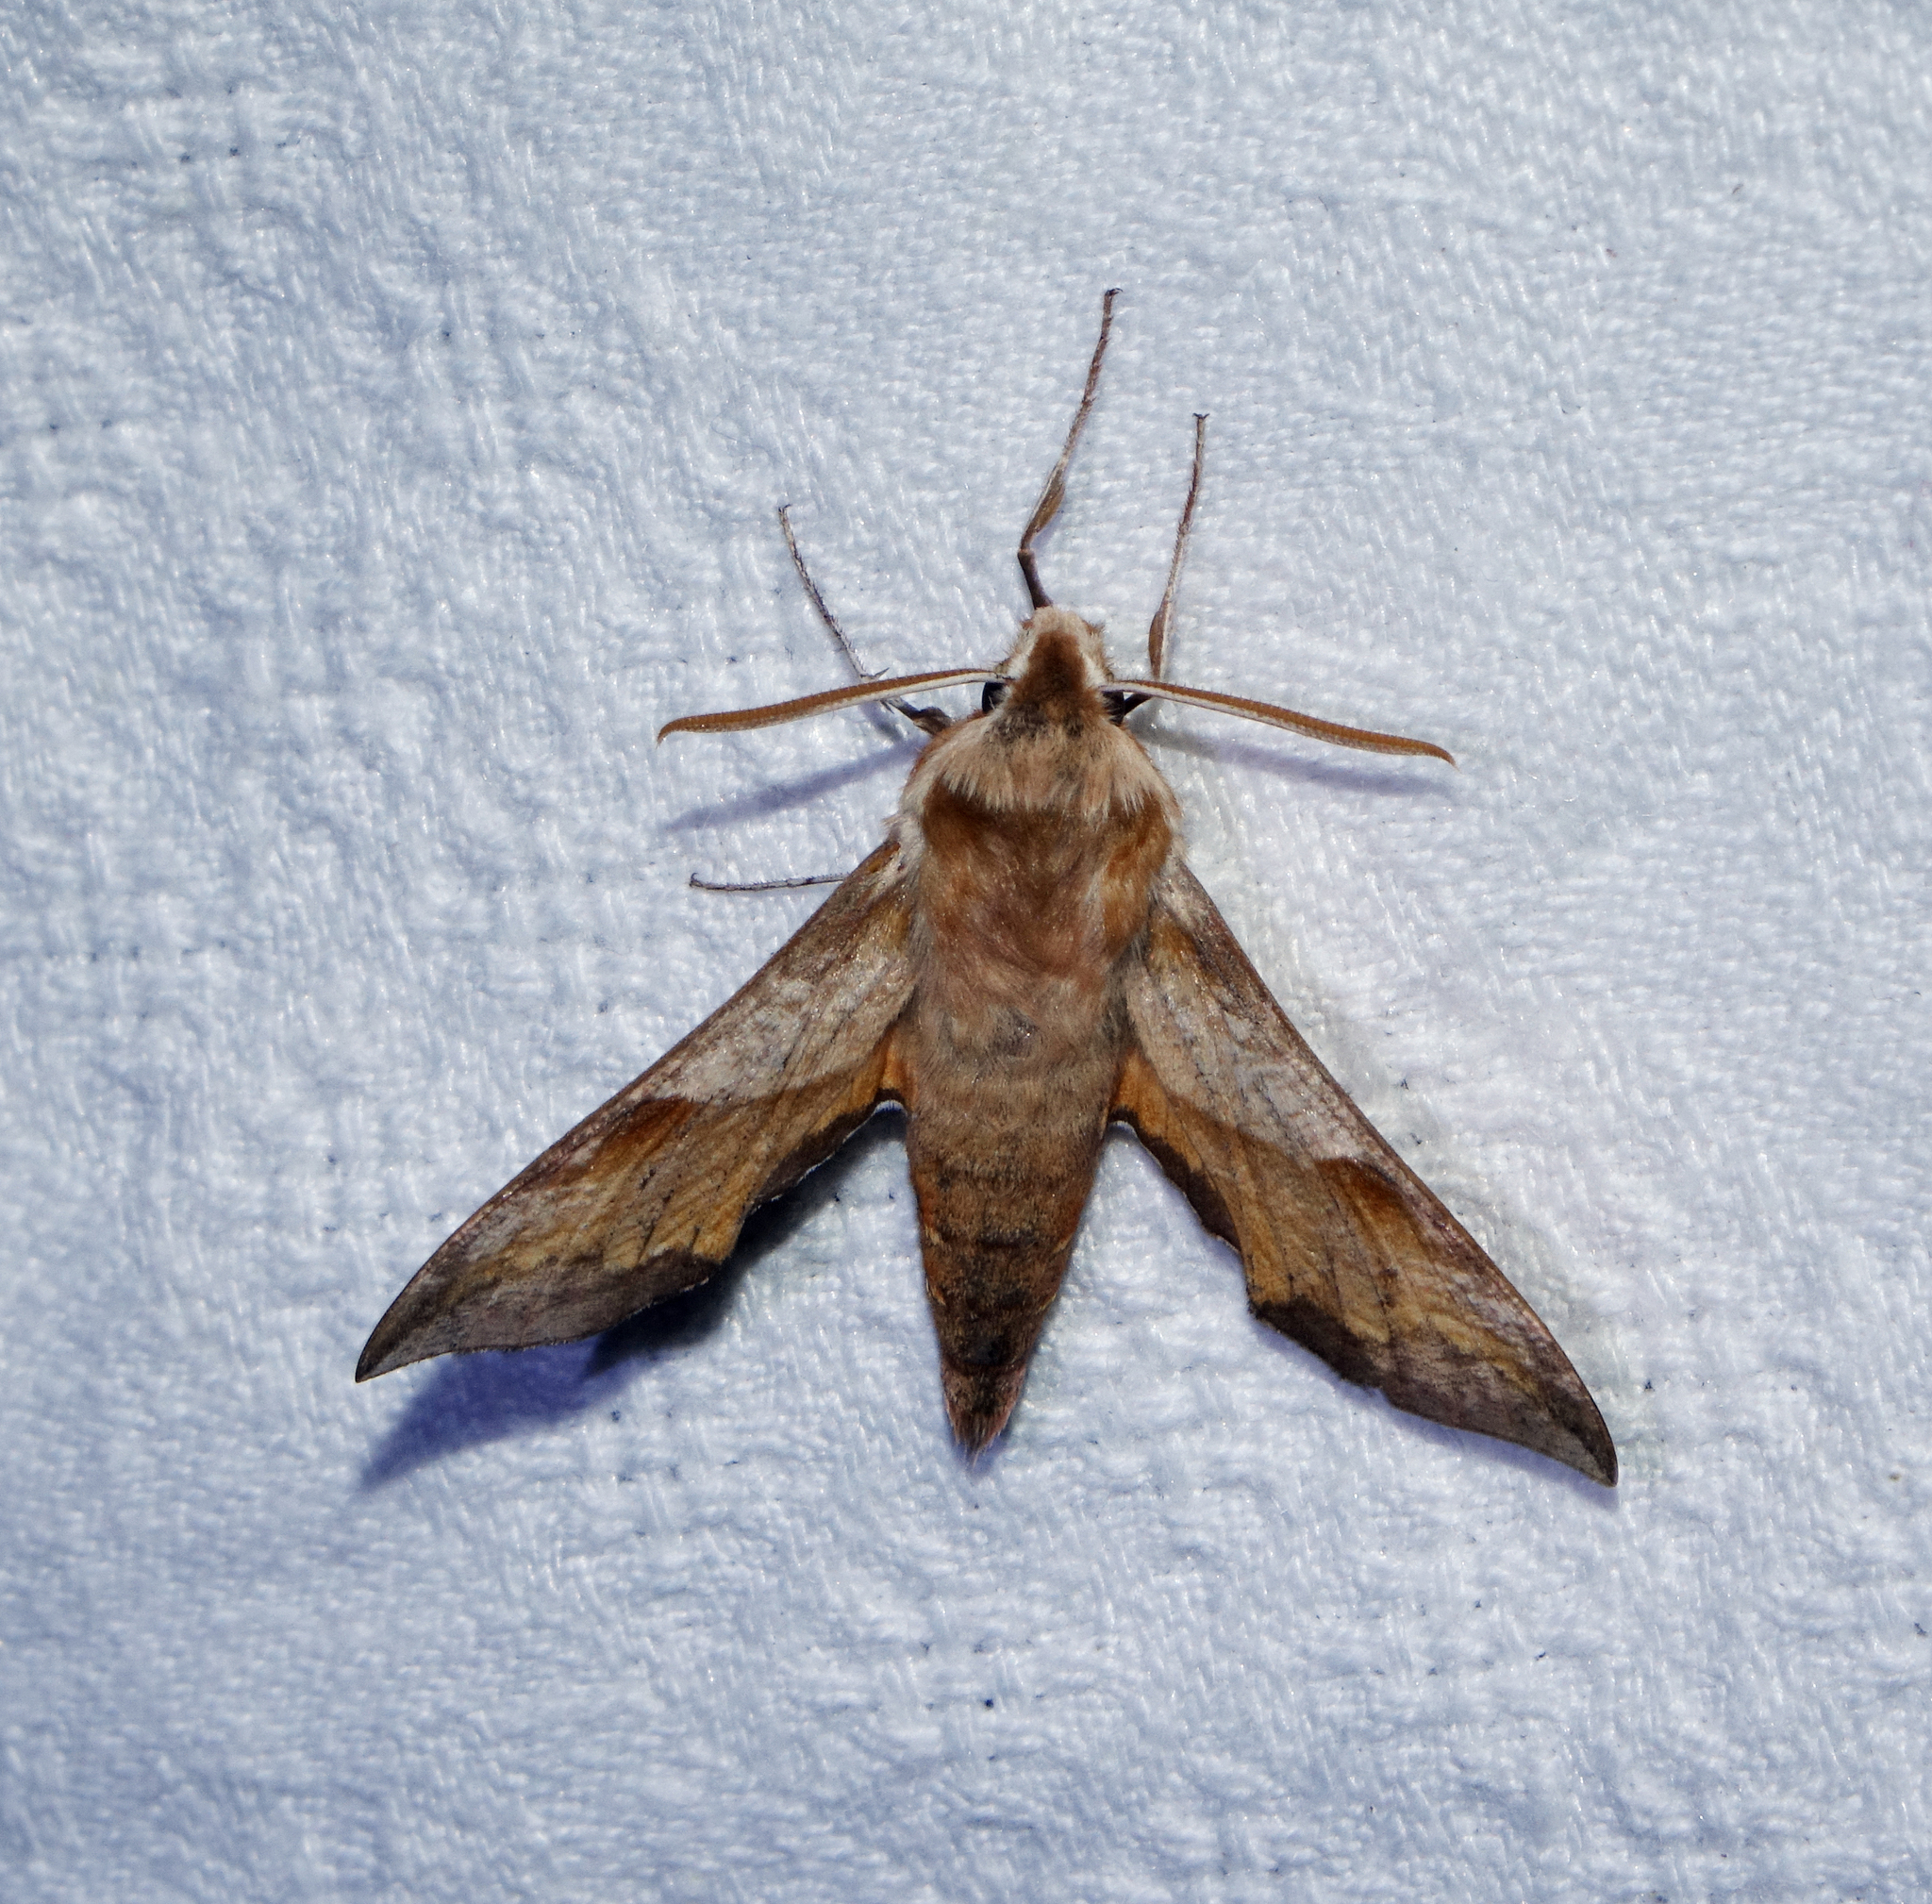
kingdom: Animalia
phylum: Arthropoda
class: Insecta
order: Lepidoptera
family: Sphingidae
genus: Deilephila
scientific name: Deilephila porcellus
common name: Small elephant hawk-moth
